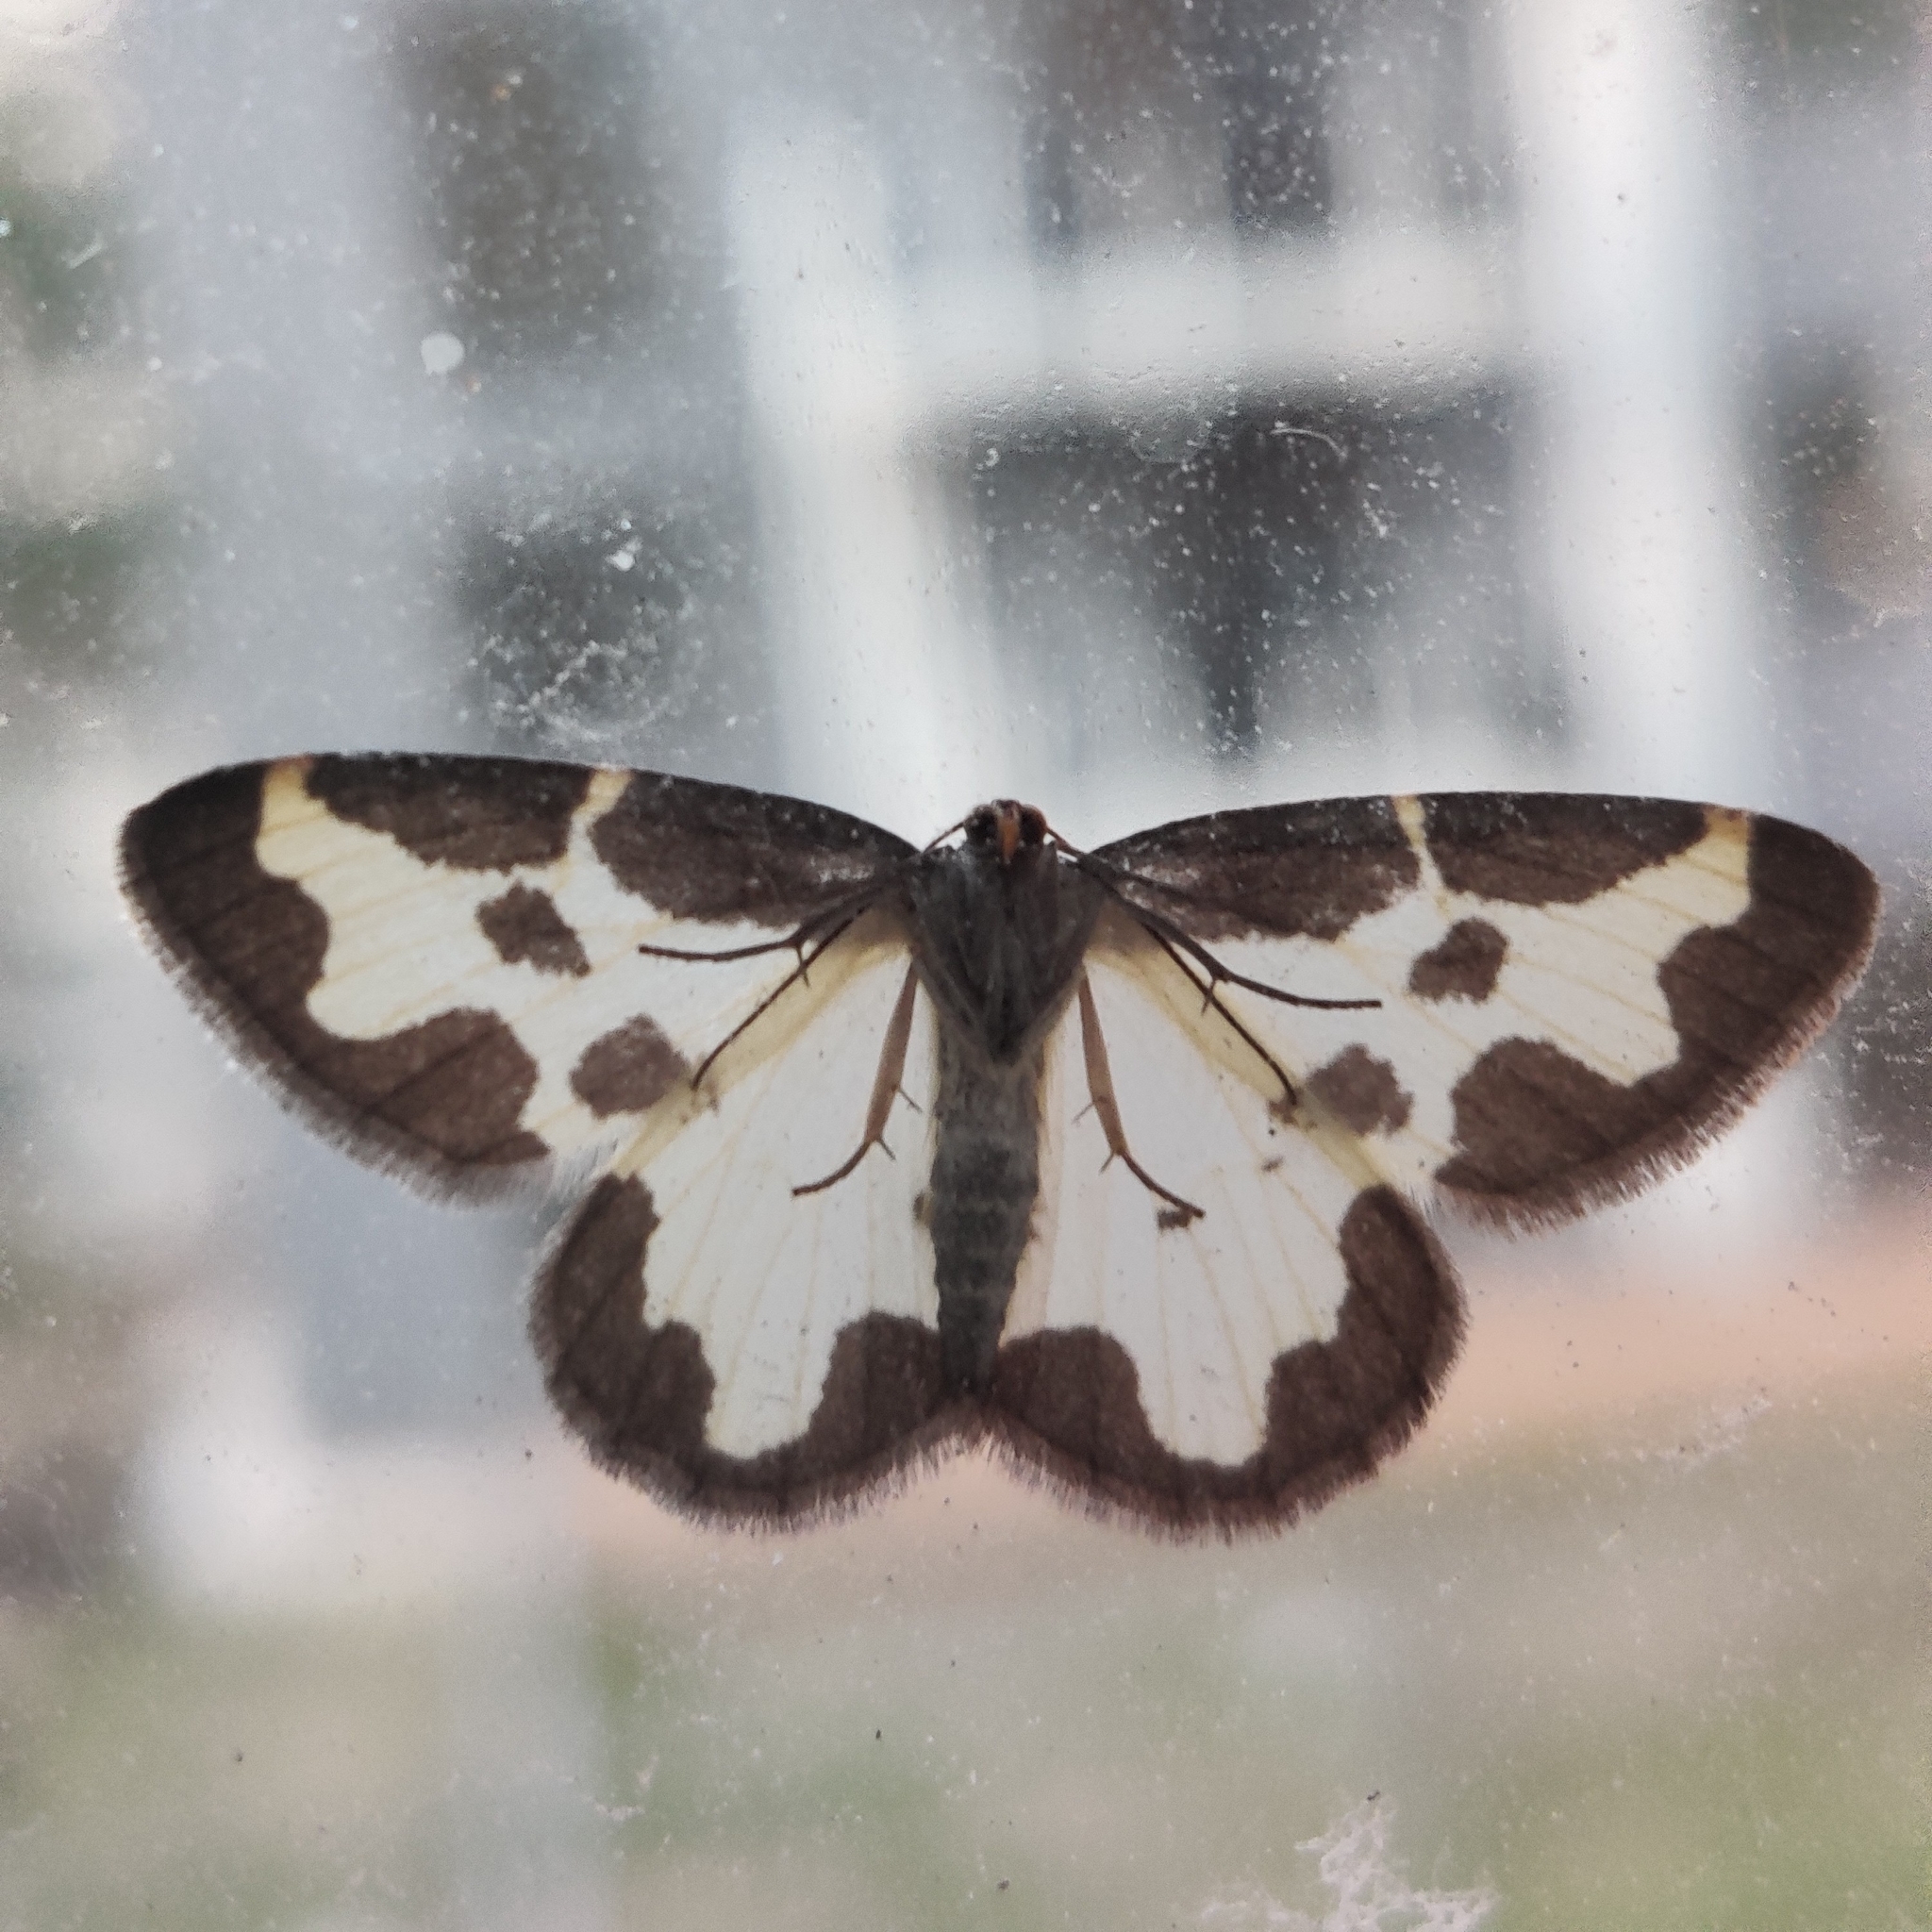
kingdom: Animalia
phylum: Arthropoda
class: Insecta
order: Lepidoptera
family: Geometridae
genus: Lomaspilis
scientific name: Lomaspilis marginata
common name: Clouded border
